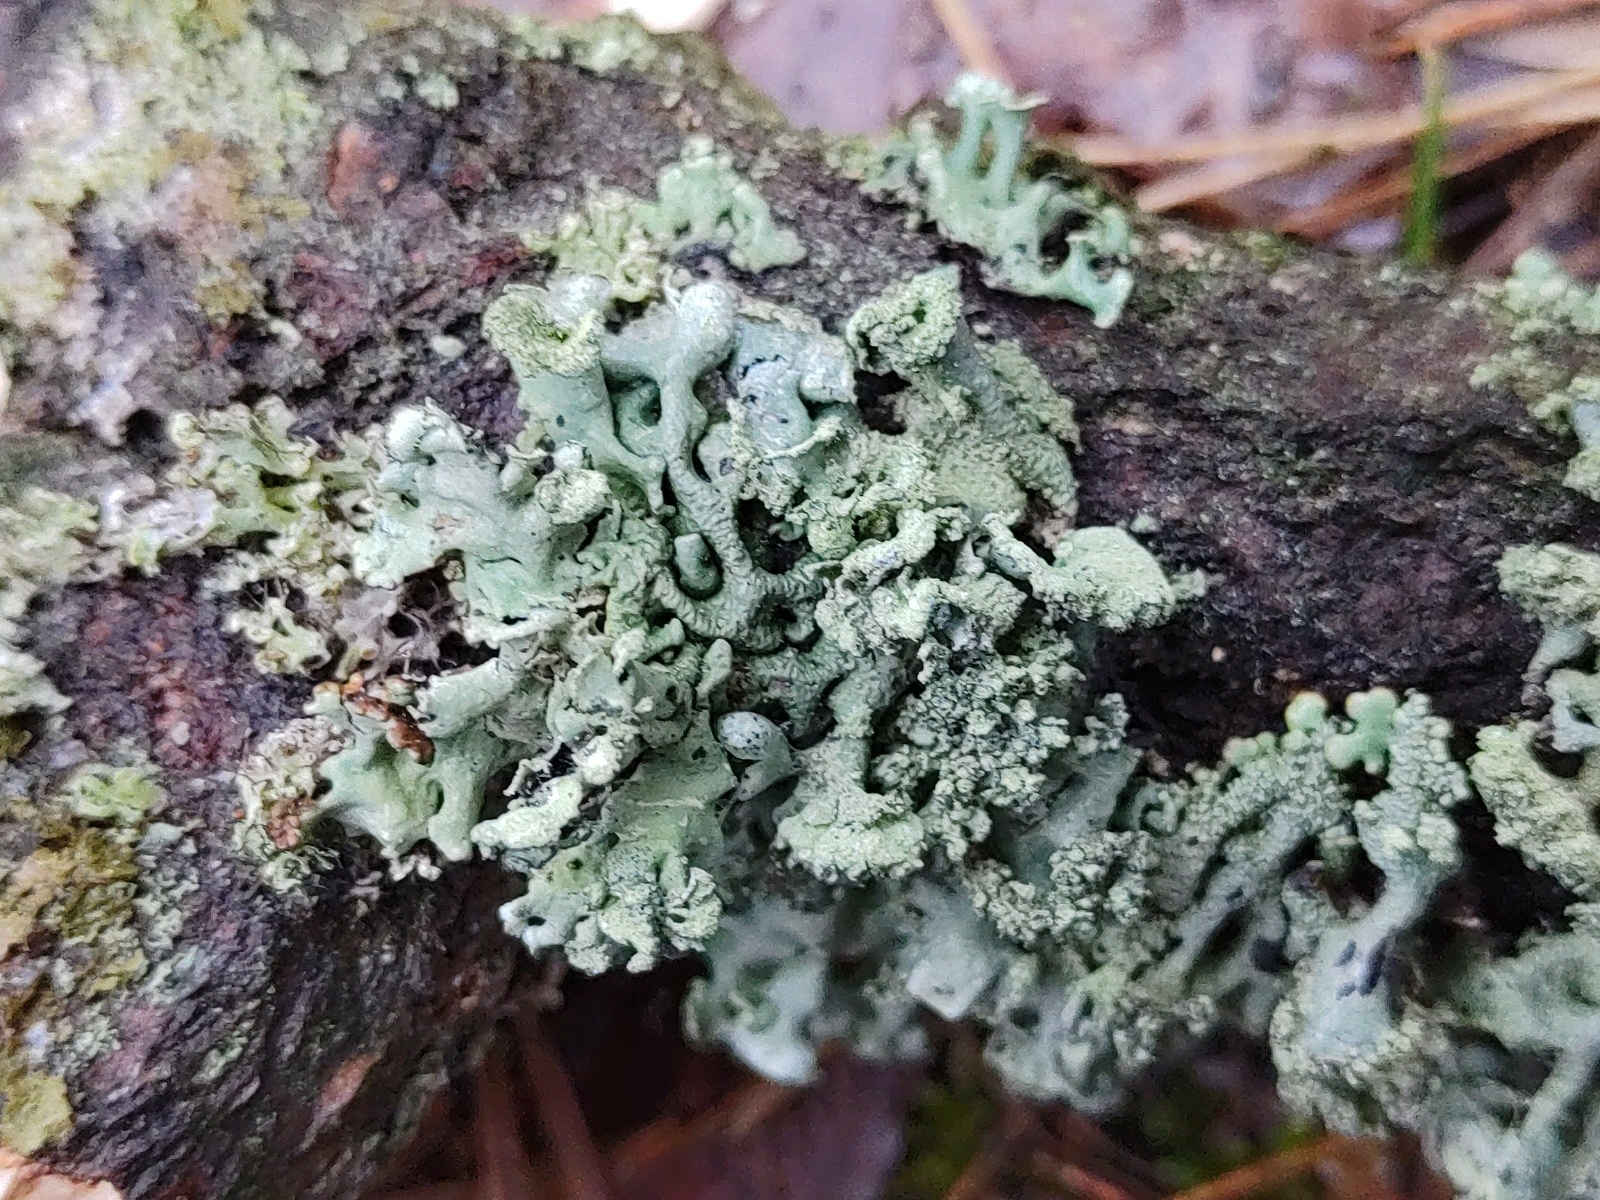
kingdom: Fungi
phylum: Ascomycota
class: Lecanoromycetes
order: Lecanorales
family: Parmeliaceae
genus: Hypogymnia
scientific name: Hypogymnia physodes
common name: Dark crottle
